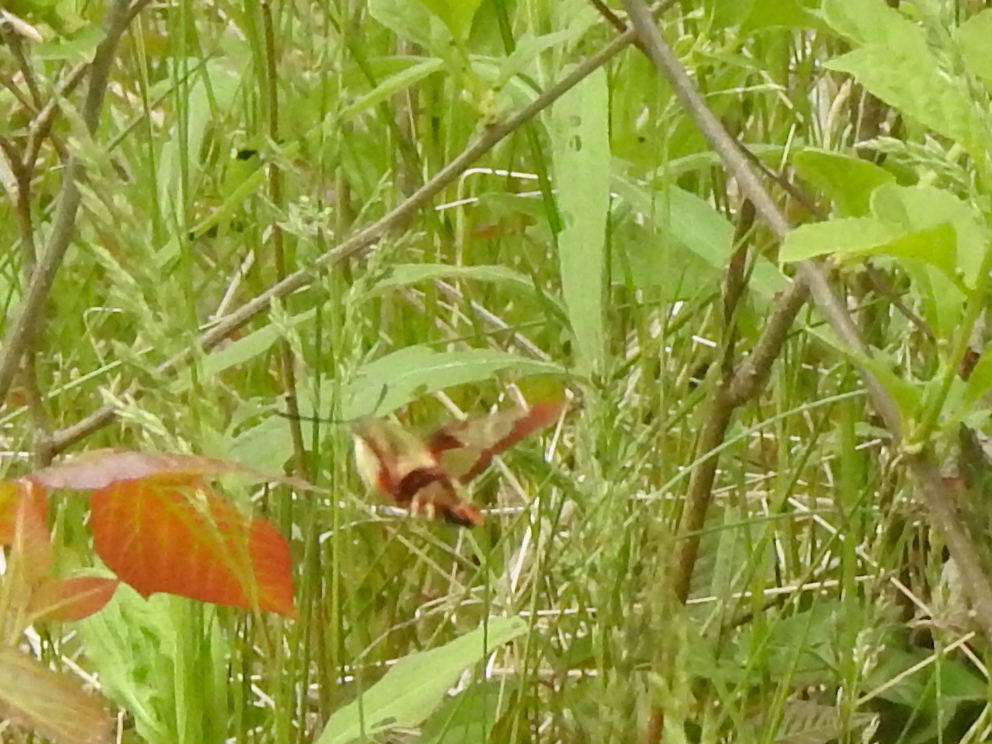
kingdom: Animalia
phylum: Arthropoda
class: Insecta
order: Lepidoptera
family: Sphingidae
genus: Hemaris
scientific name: Hemaris thysbe
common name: Common clear-wing
